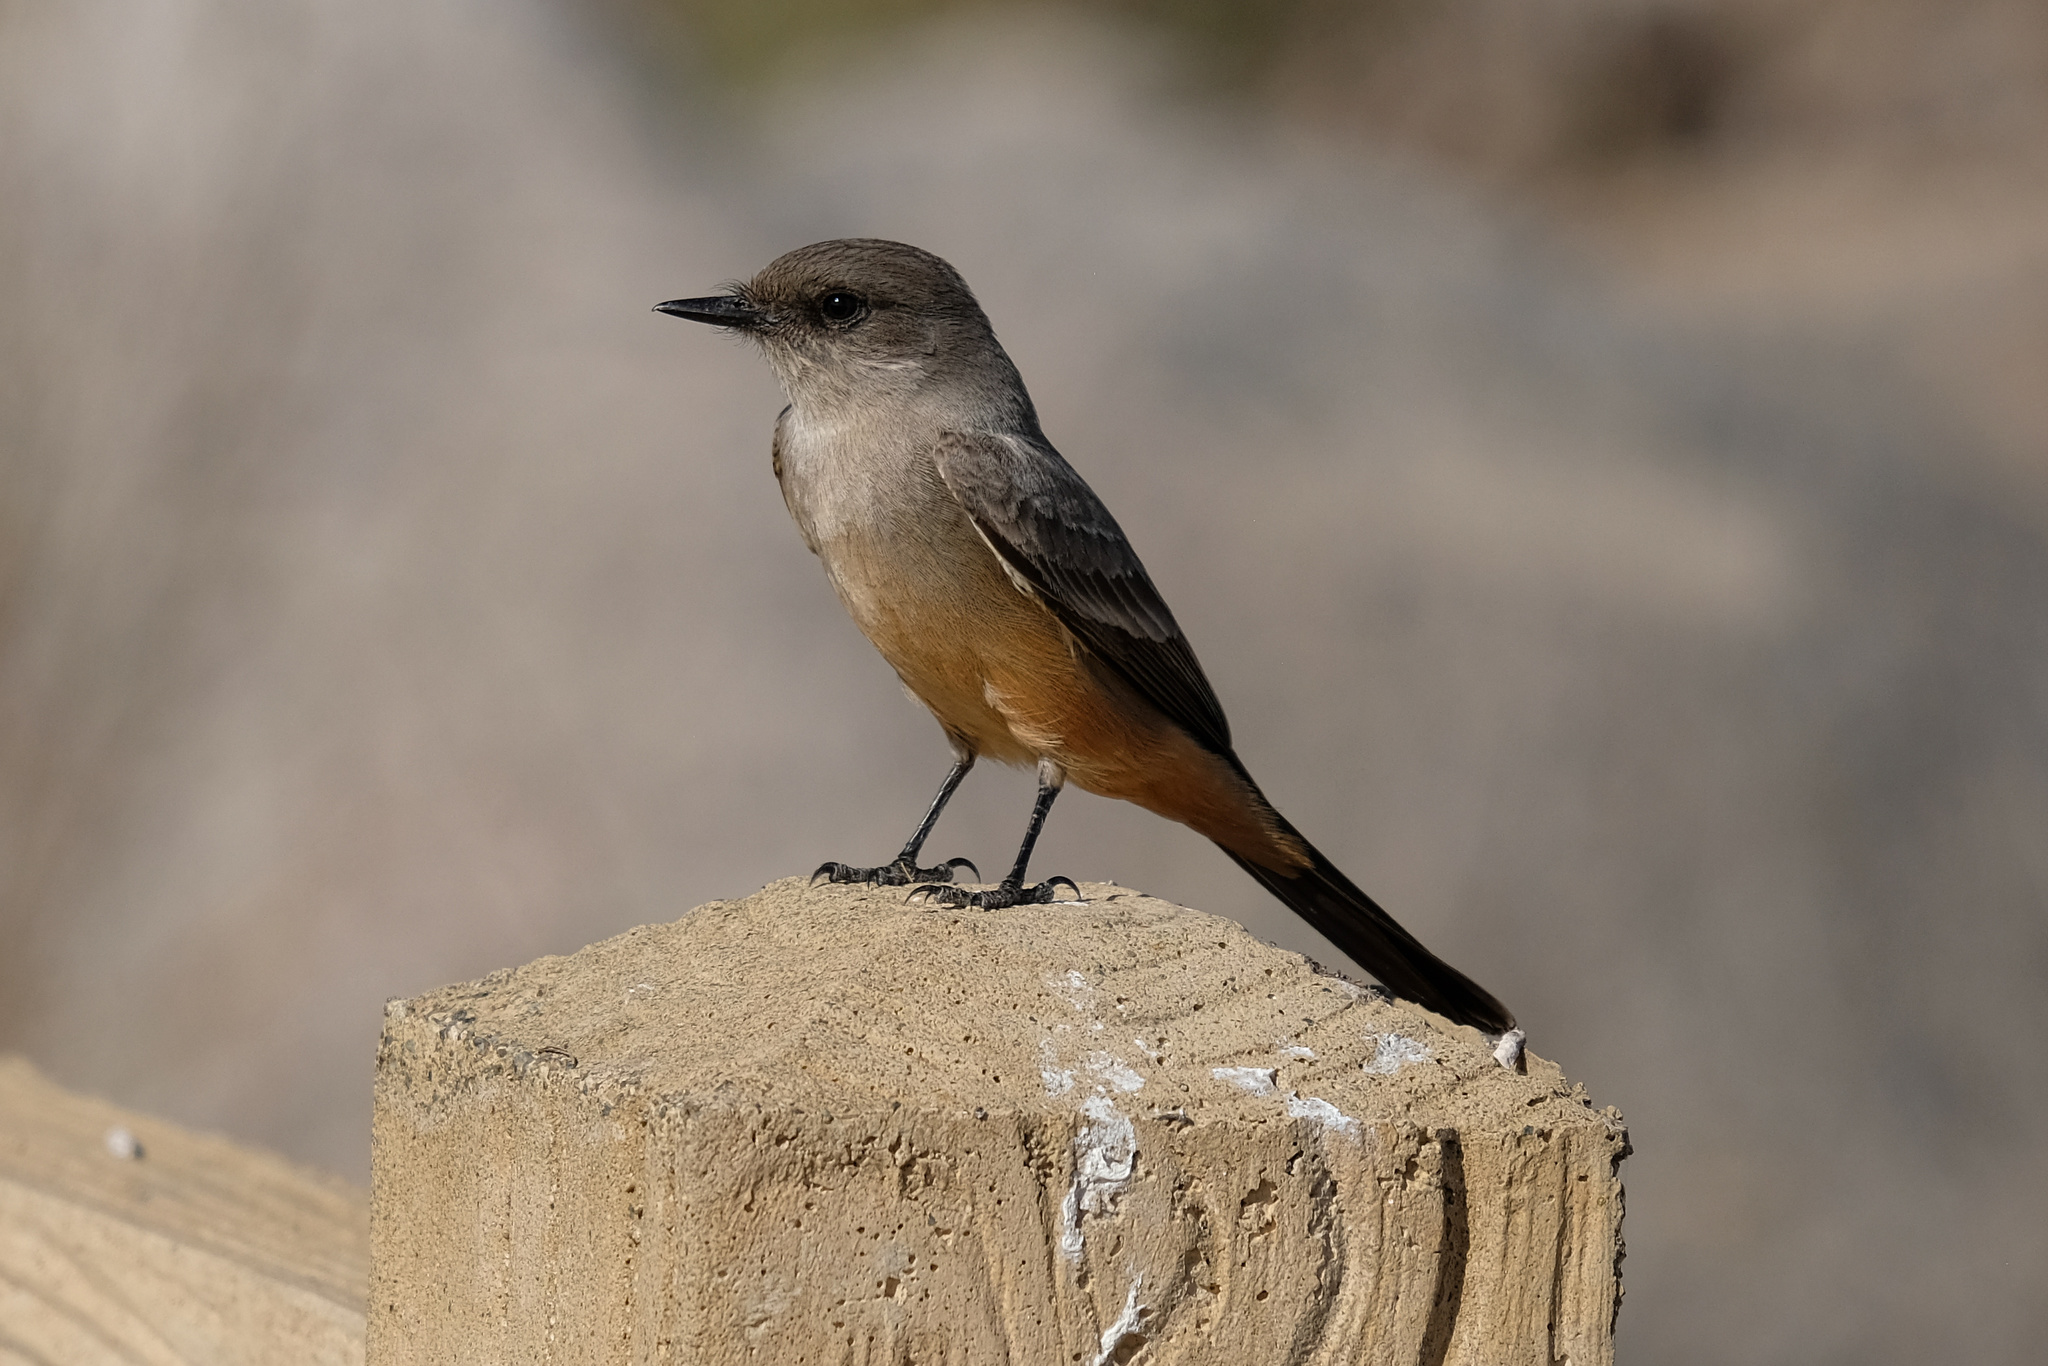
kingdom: Animalia
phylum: Chordata
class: Aves
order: Passeriformes
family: Tyrannidae
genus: Sayornis
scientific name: Sayornis saya
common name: Say's phoebe
